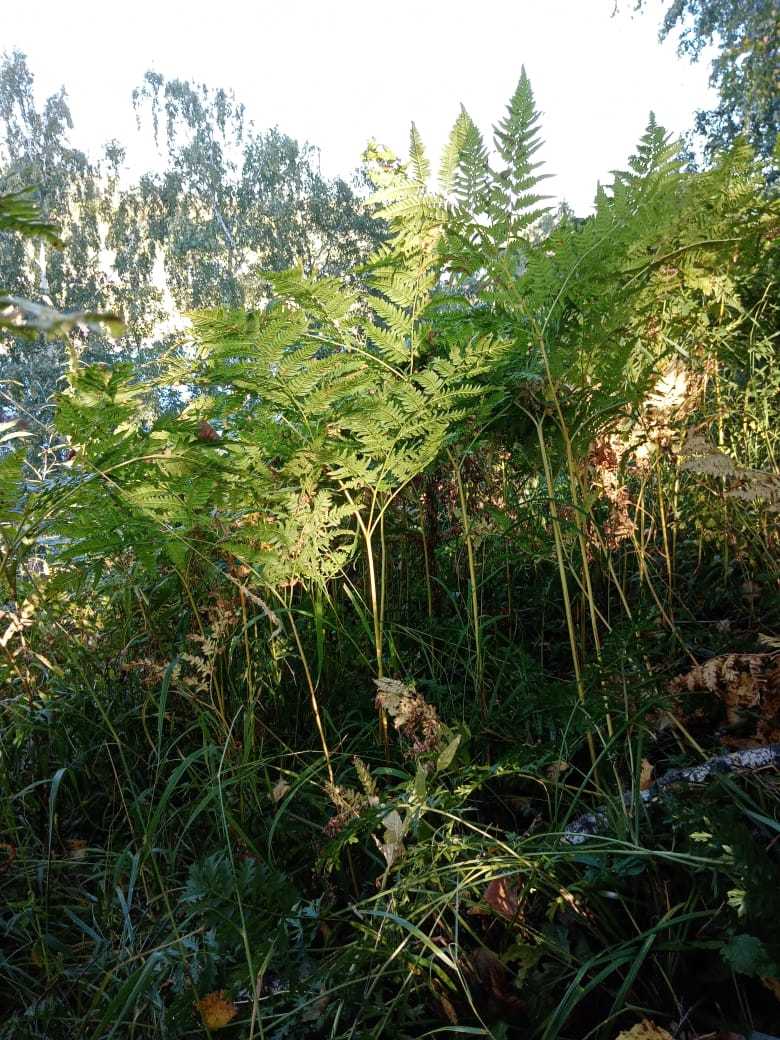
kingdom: Plantae
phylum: Tracheophyta
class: Polypodiopsida
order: Polypodiales
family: Dennstaedtiaceae
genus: Pteridium
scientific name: Pteridium aquilinum
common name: Bracken
